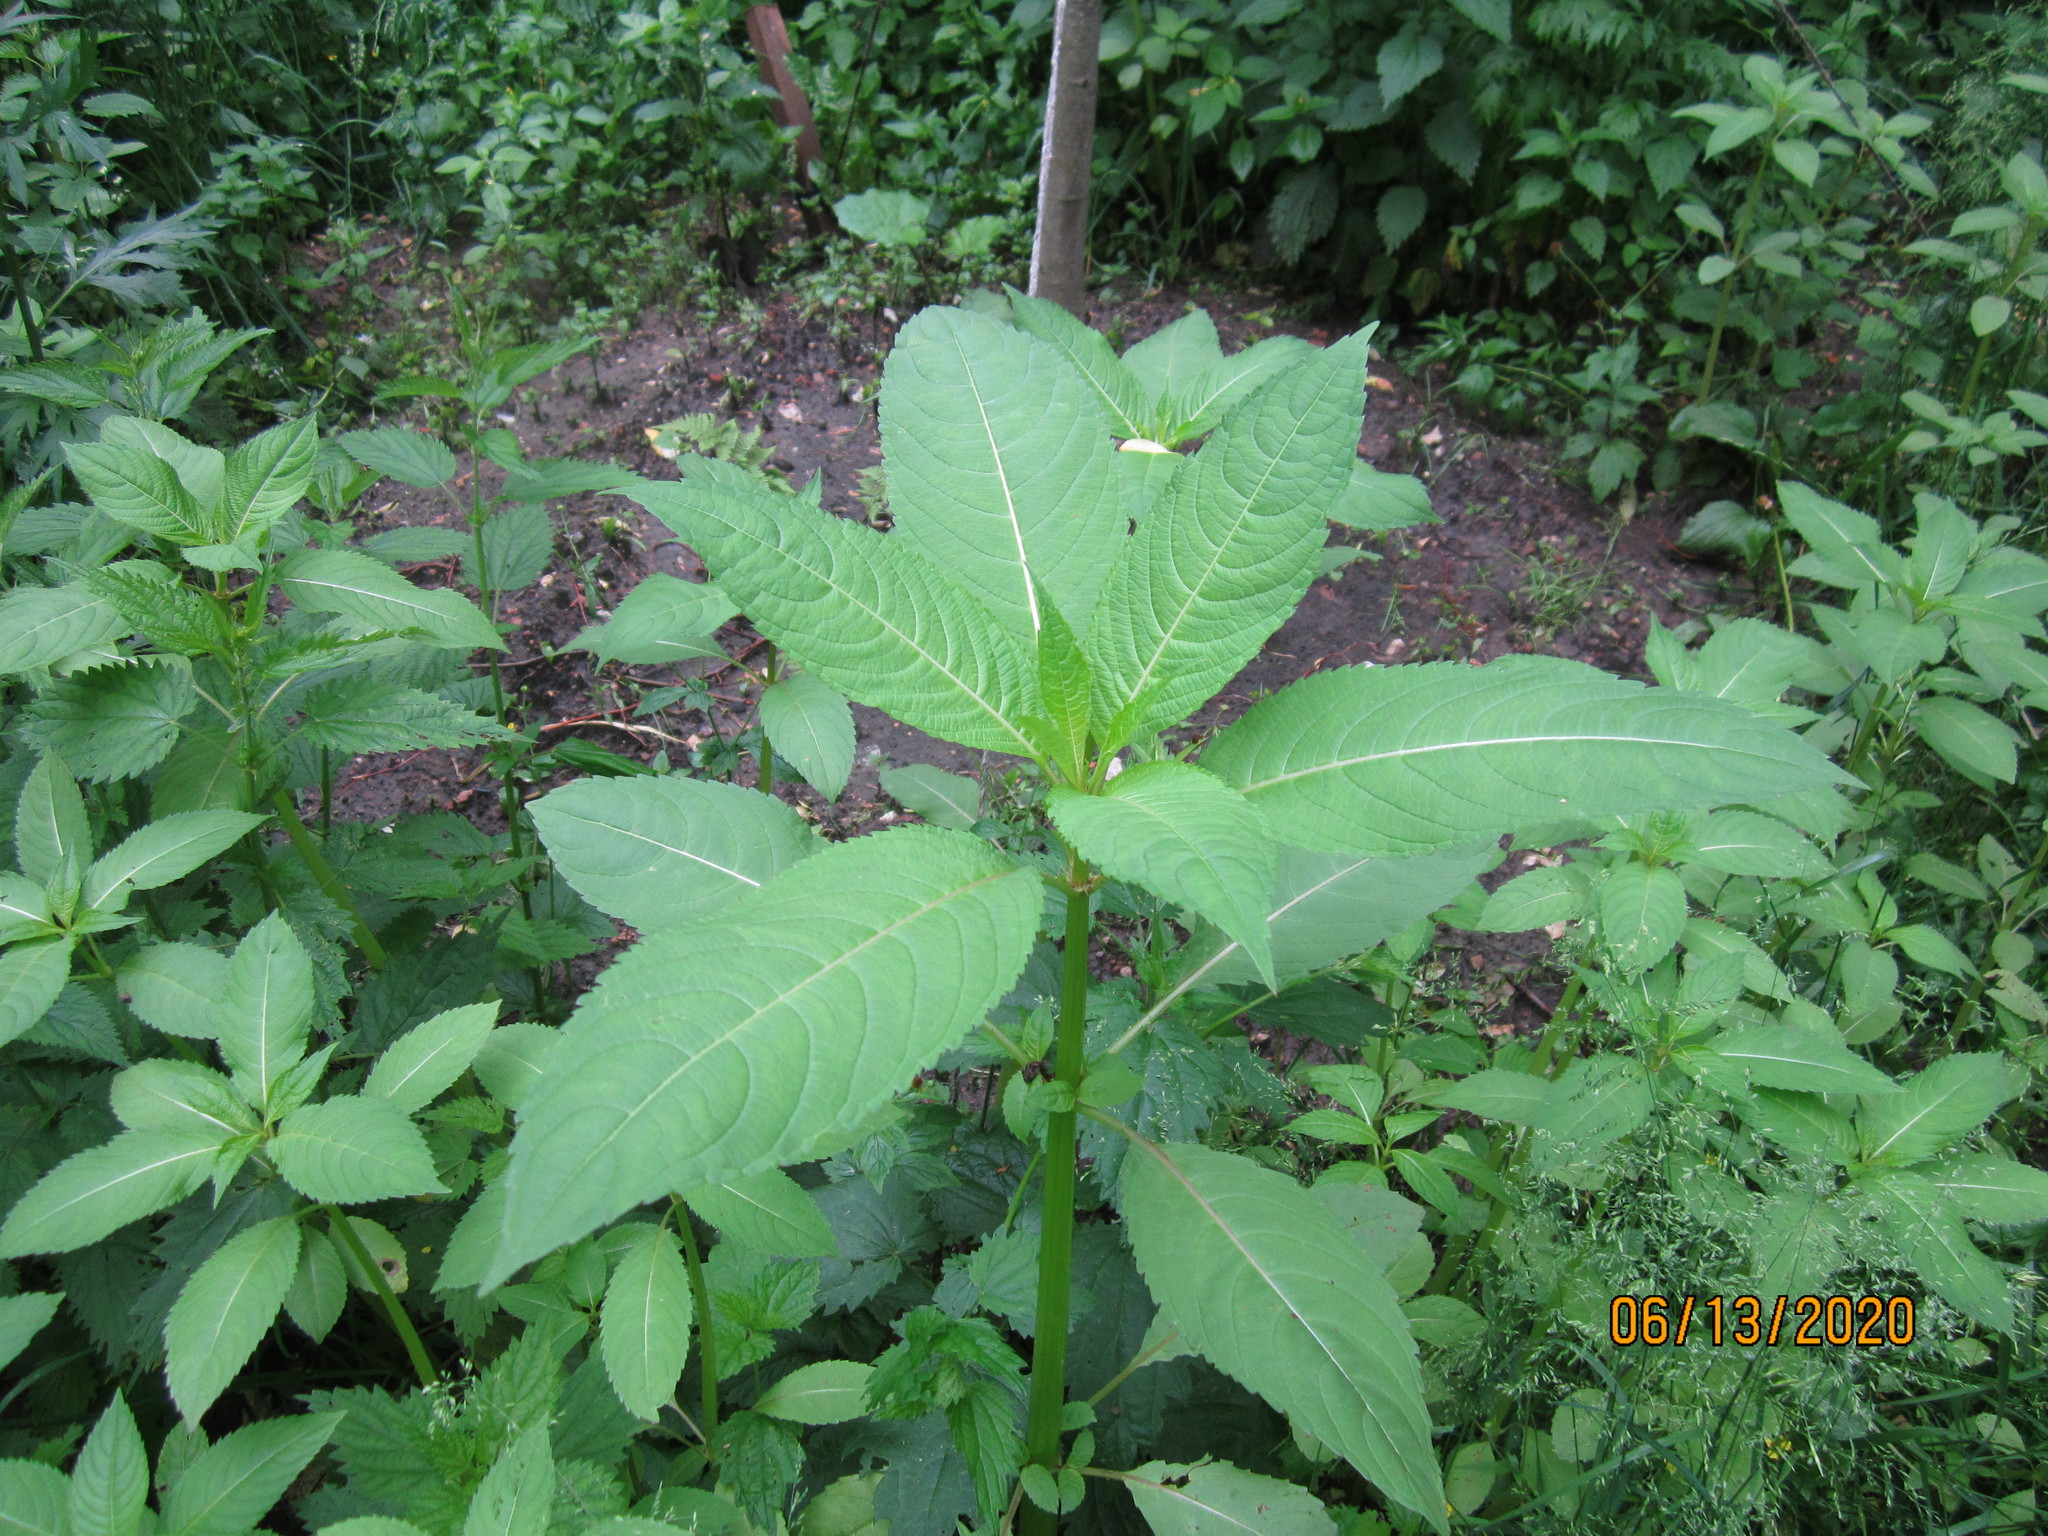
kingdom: Plantae
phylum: Tracheophyta
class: Magnoliopsida
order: Ericales
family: Balsaminaceae
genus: Impatiens
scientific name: Impatiens glandulifera
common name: Himalayan balsam
